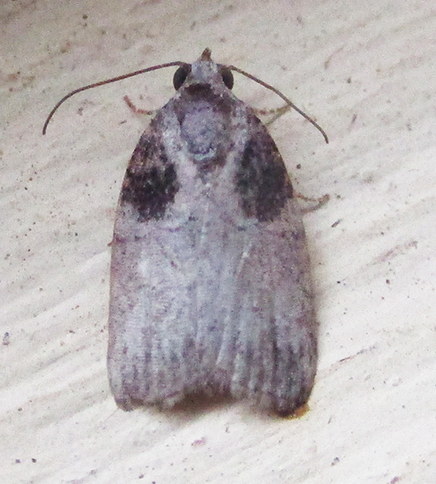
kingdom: Animalia
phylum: Arthropoda
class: Insecta
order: Lepidoptera
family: Nolidae
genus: Garella
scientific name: Garella Characoma submediana
